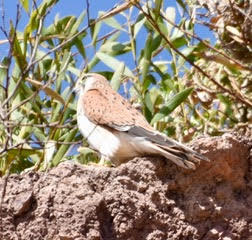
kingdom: Animalia
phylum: Chordata
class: Aves
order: Falconiformes
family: Falconidae
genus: Falco
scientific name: Falco cenchroides
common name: Nankeen kestrel
